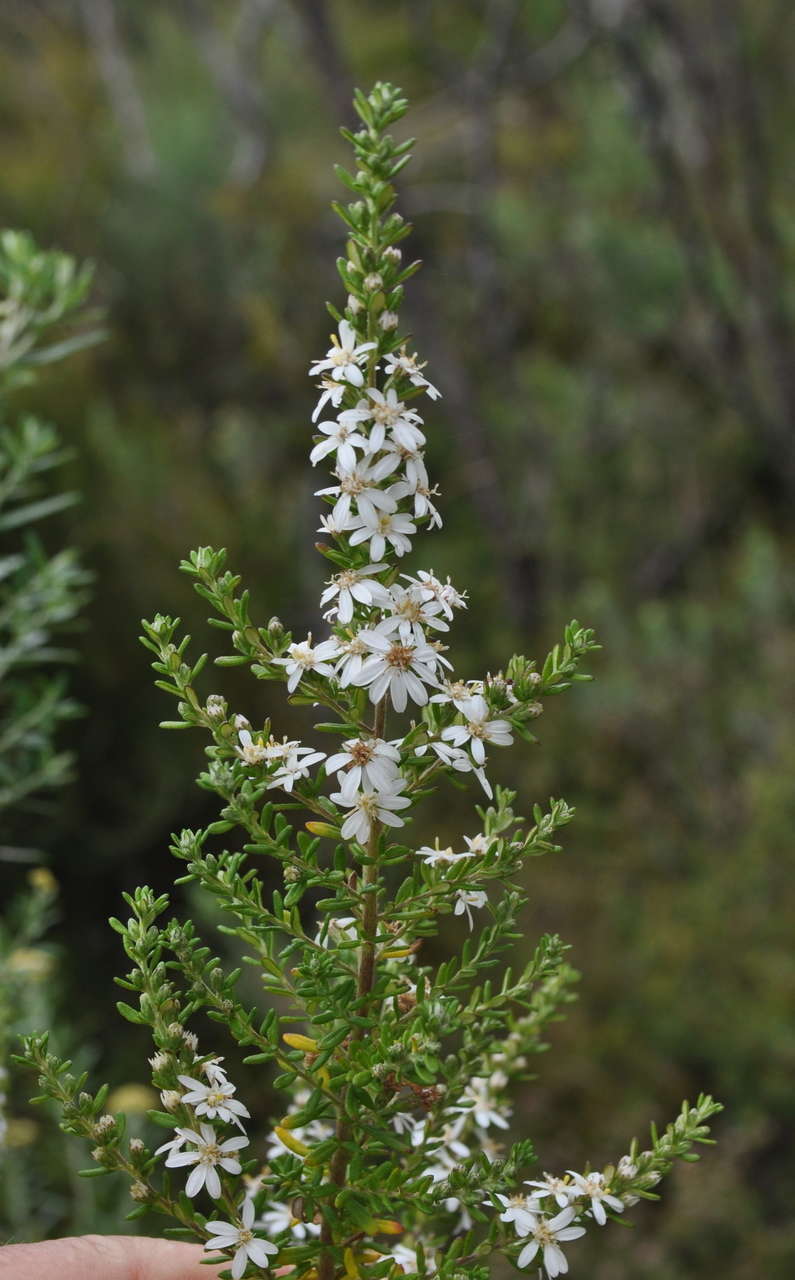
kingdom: Plantae
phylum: Tracheophyta
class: Magnoliopsida
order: Asterales
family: Asteraceae
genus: Olearia
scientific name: Olearia ramulosa
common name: Twiggy daisybush
